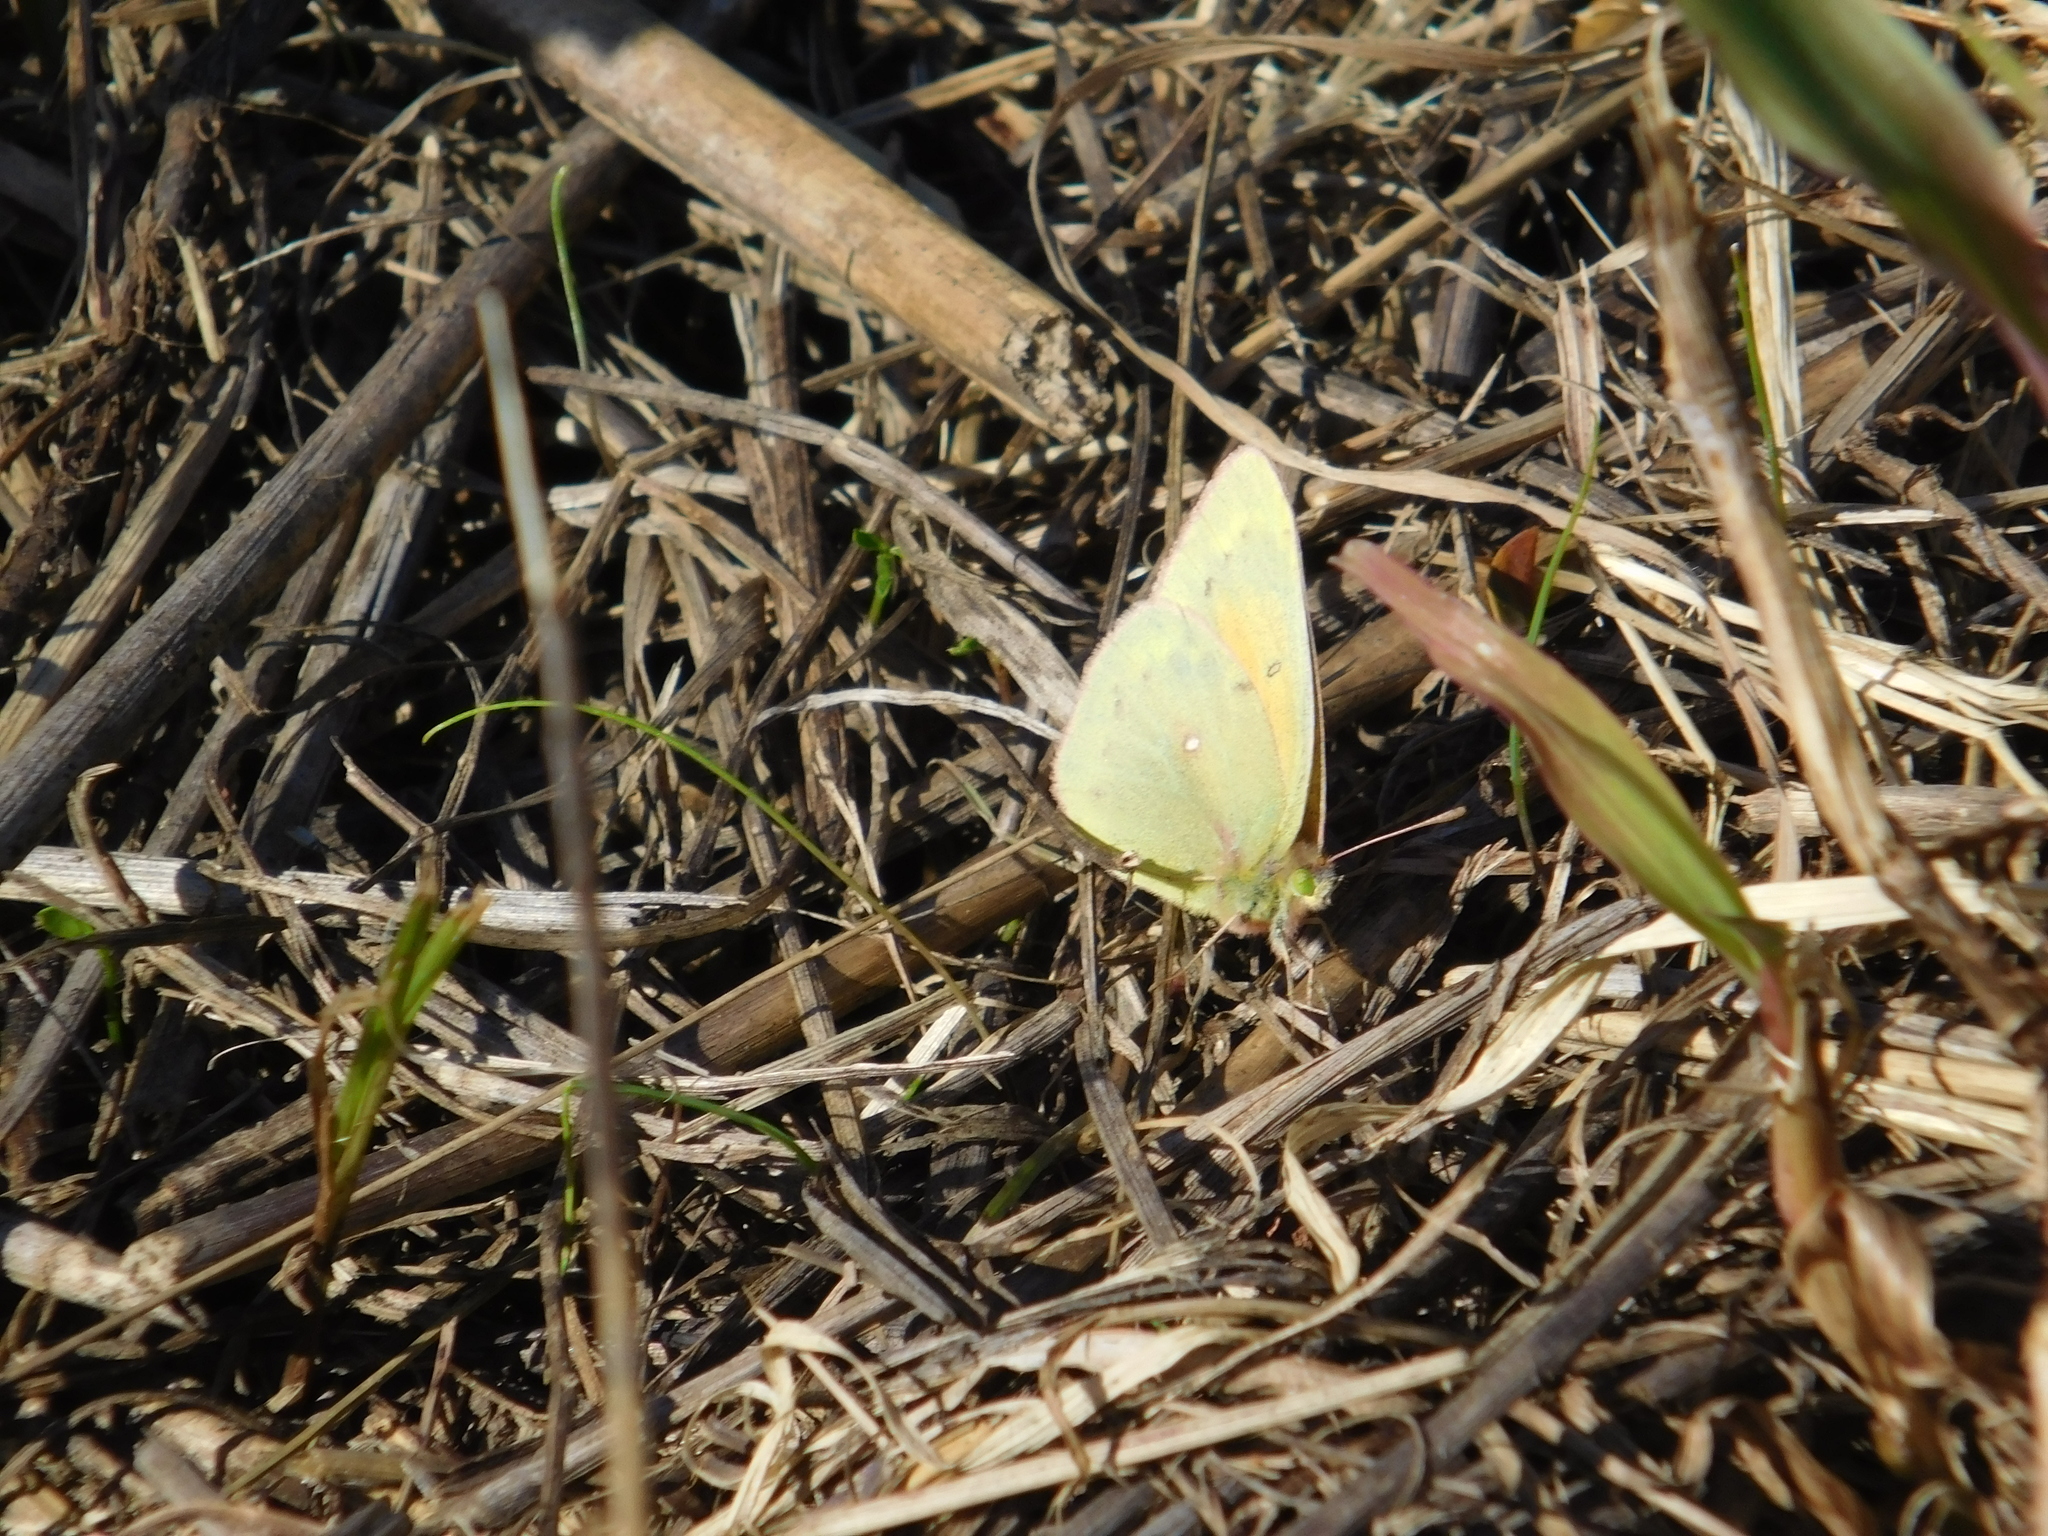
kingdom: Animalia
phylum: Arthropoda
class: Insecta
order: Lepidoptera
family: Pieridae
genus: Colias
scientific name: Colias lesbia
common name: Lesbia clouded yellow
